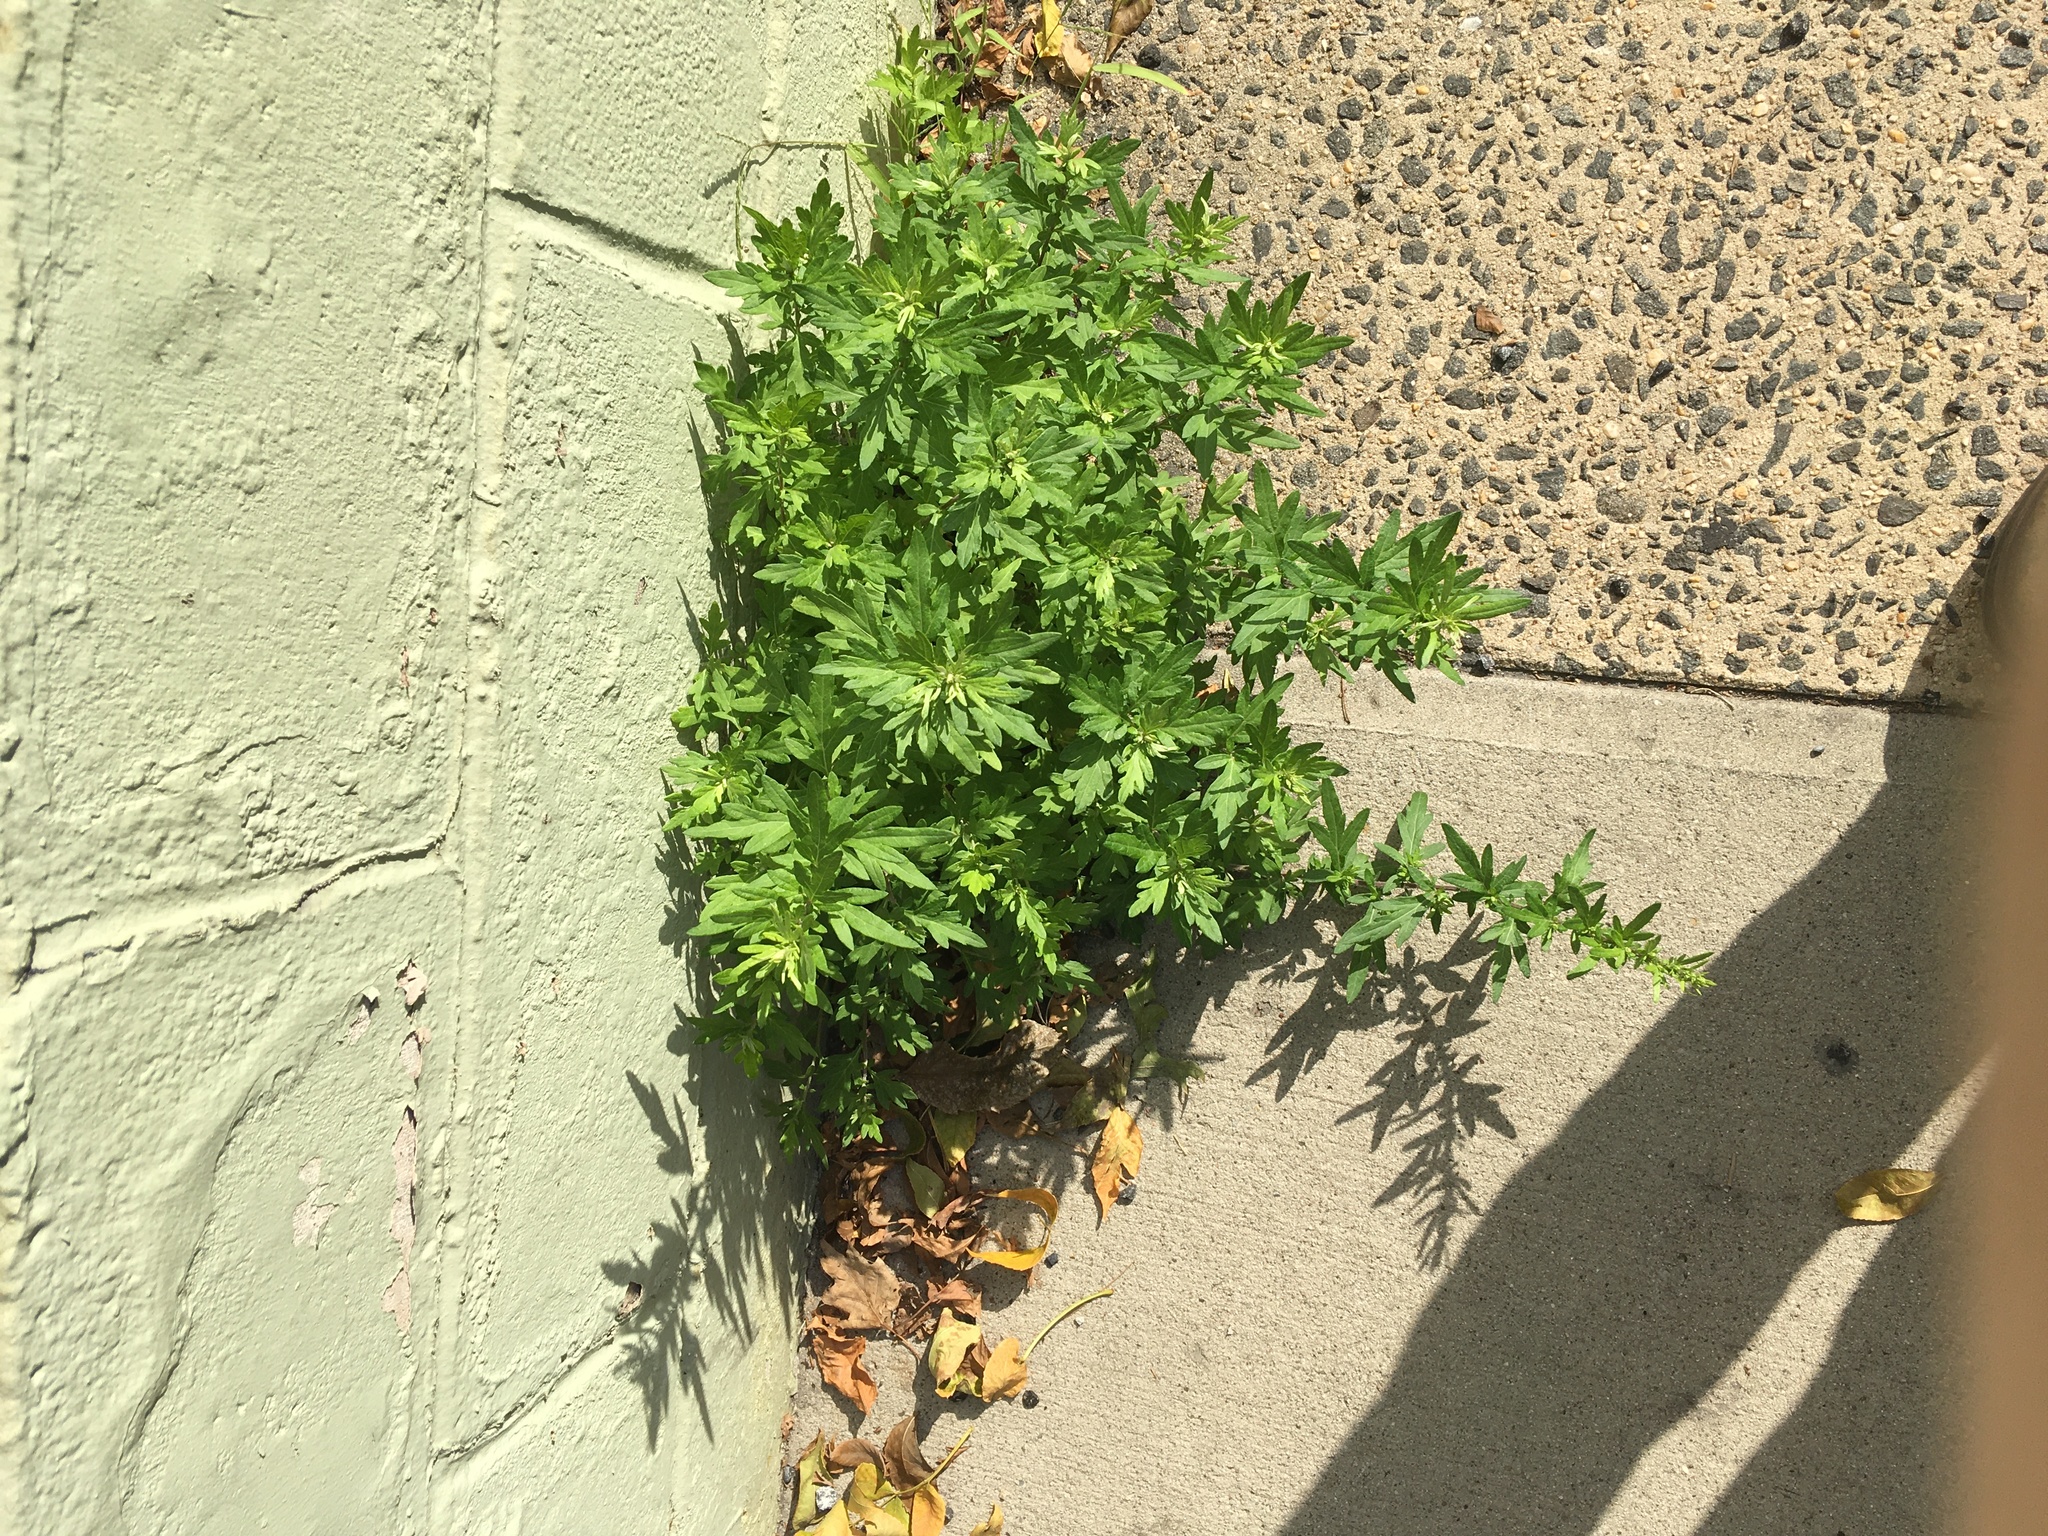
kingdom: Plantae
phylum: Tracheophyta
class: Magnoliopsida
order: Asterales
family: Asteraceae
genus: Artemisia
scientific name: Artemisia vulgaris
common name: Mugwort
